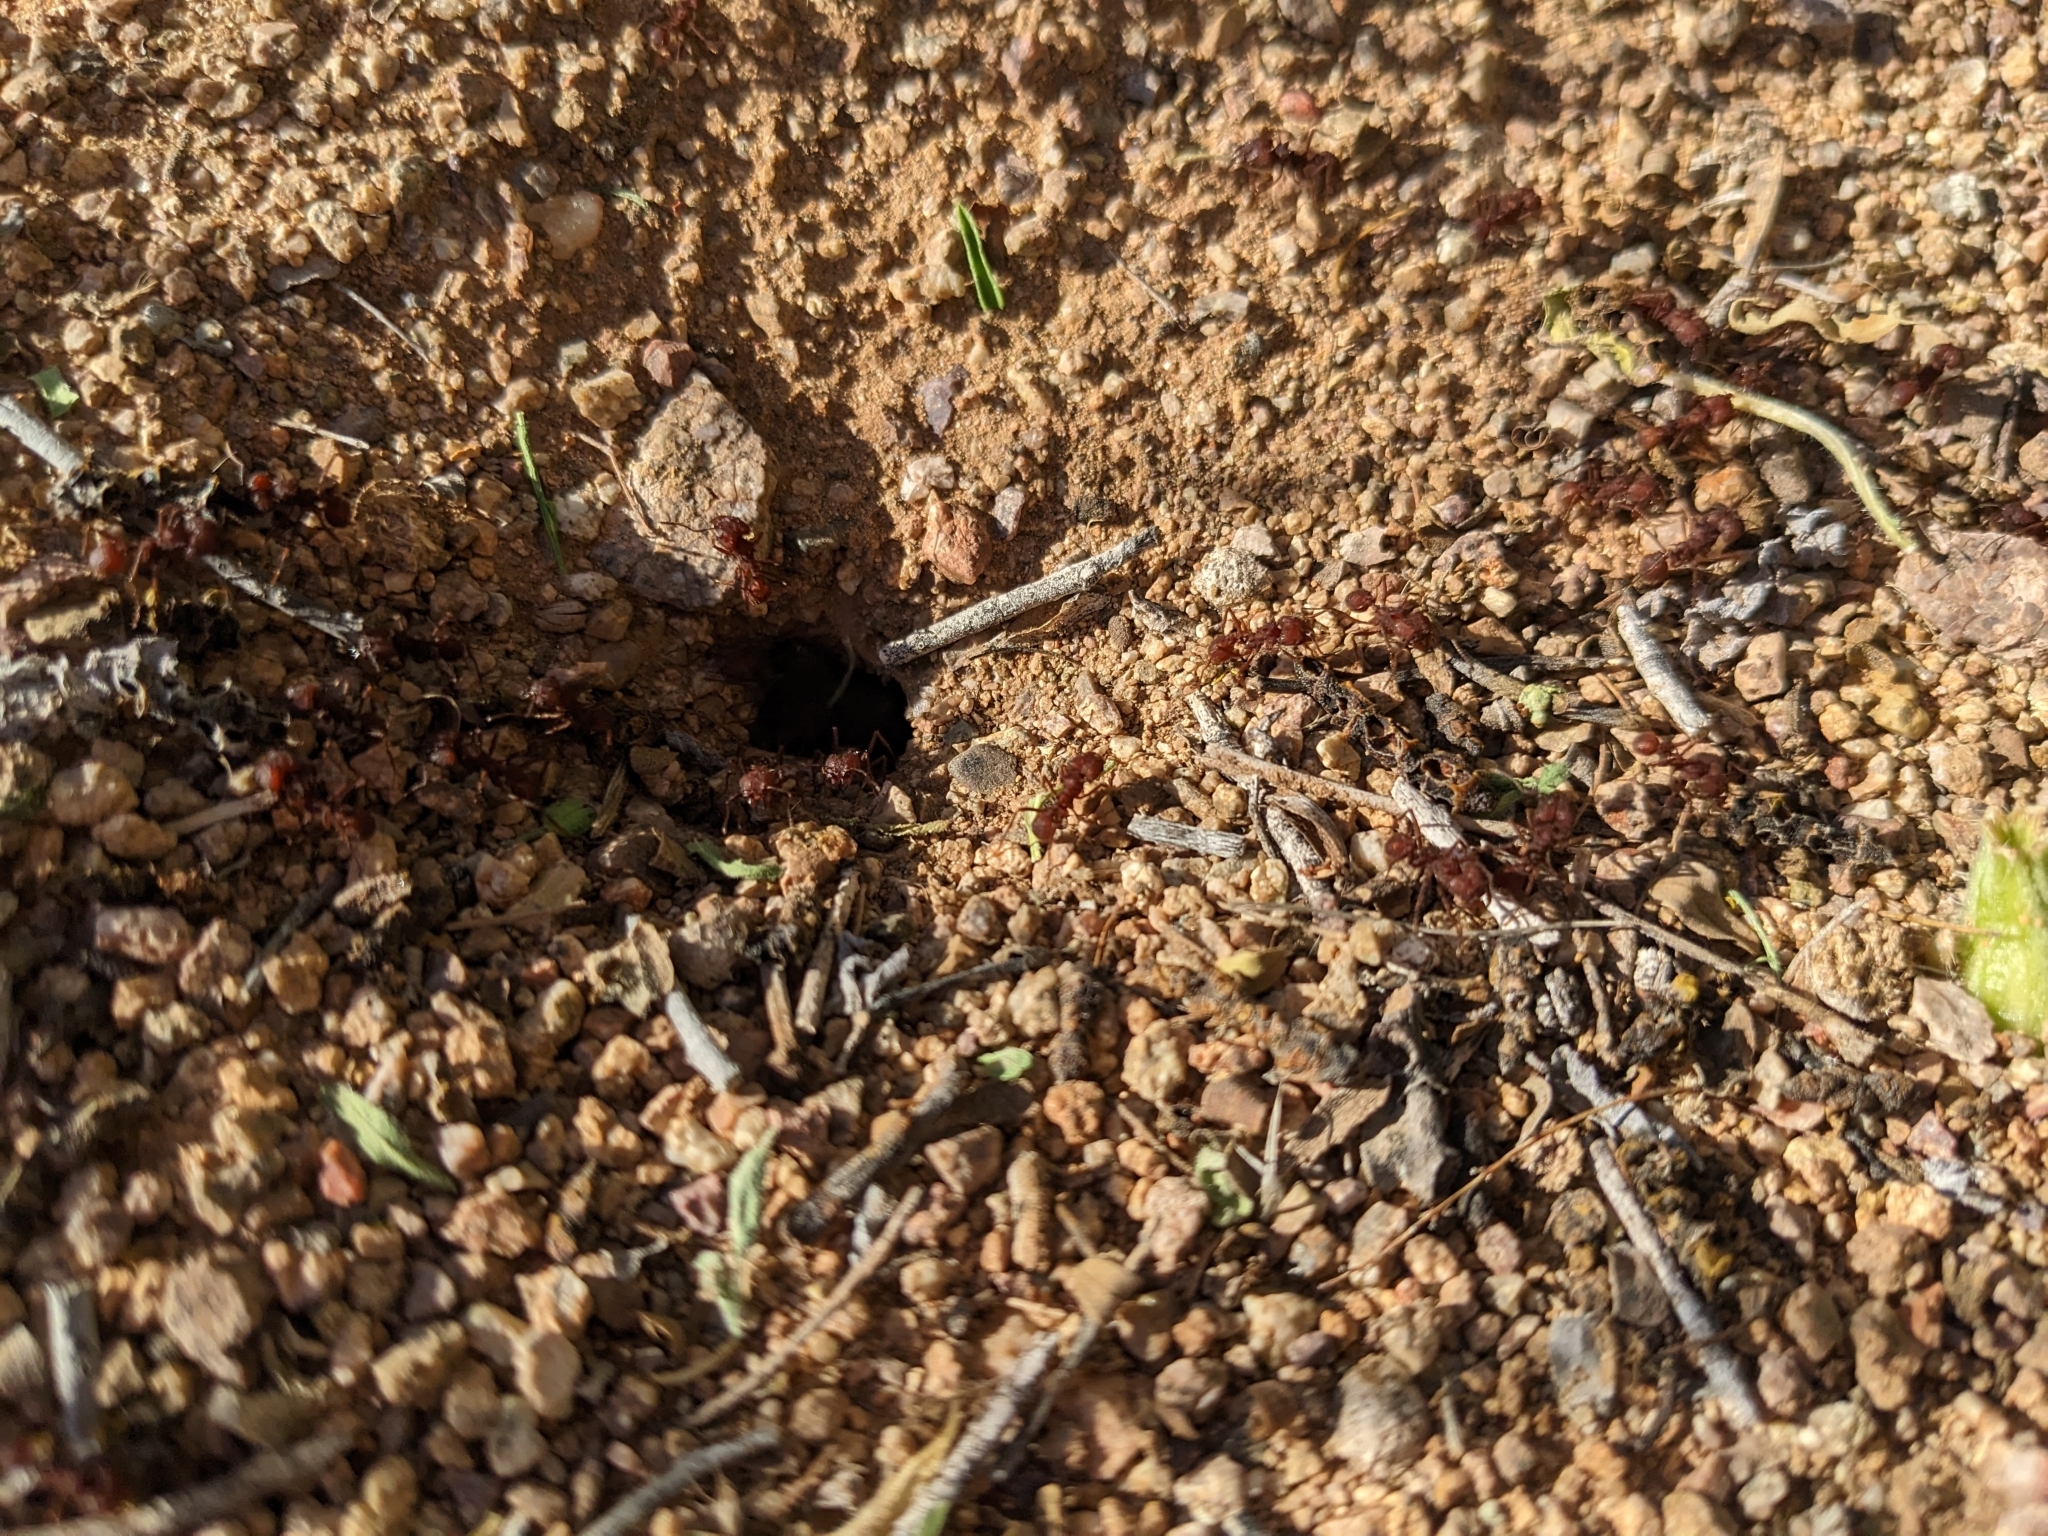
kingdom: Animalia
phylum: Arthropoda
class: Insecta
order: Hymenoptera
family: Formicidae
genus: Acromyrmex
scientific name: Acromyrmex versicolor
